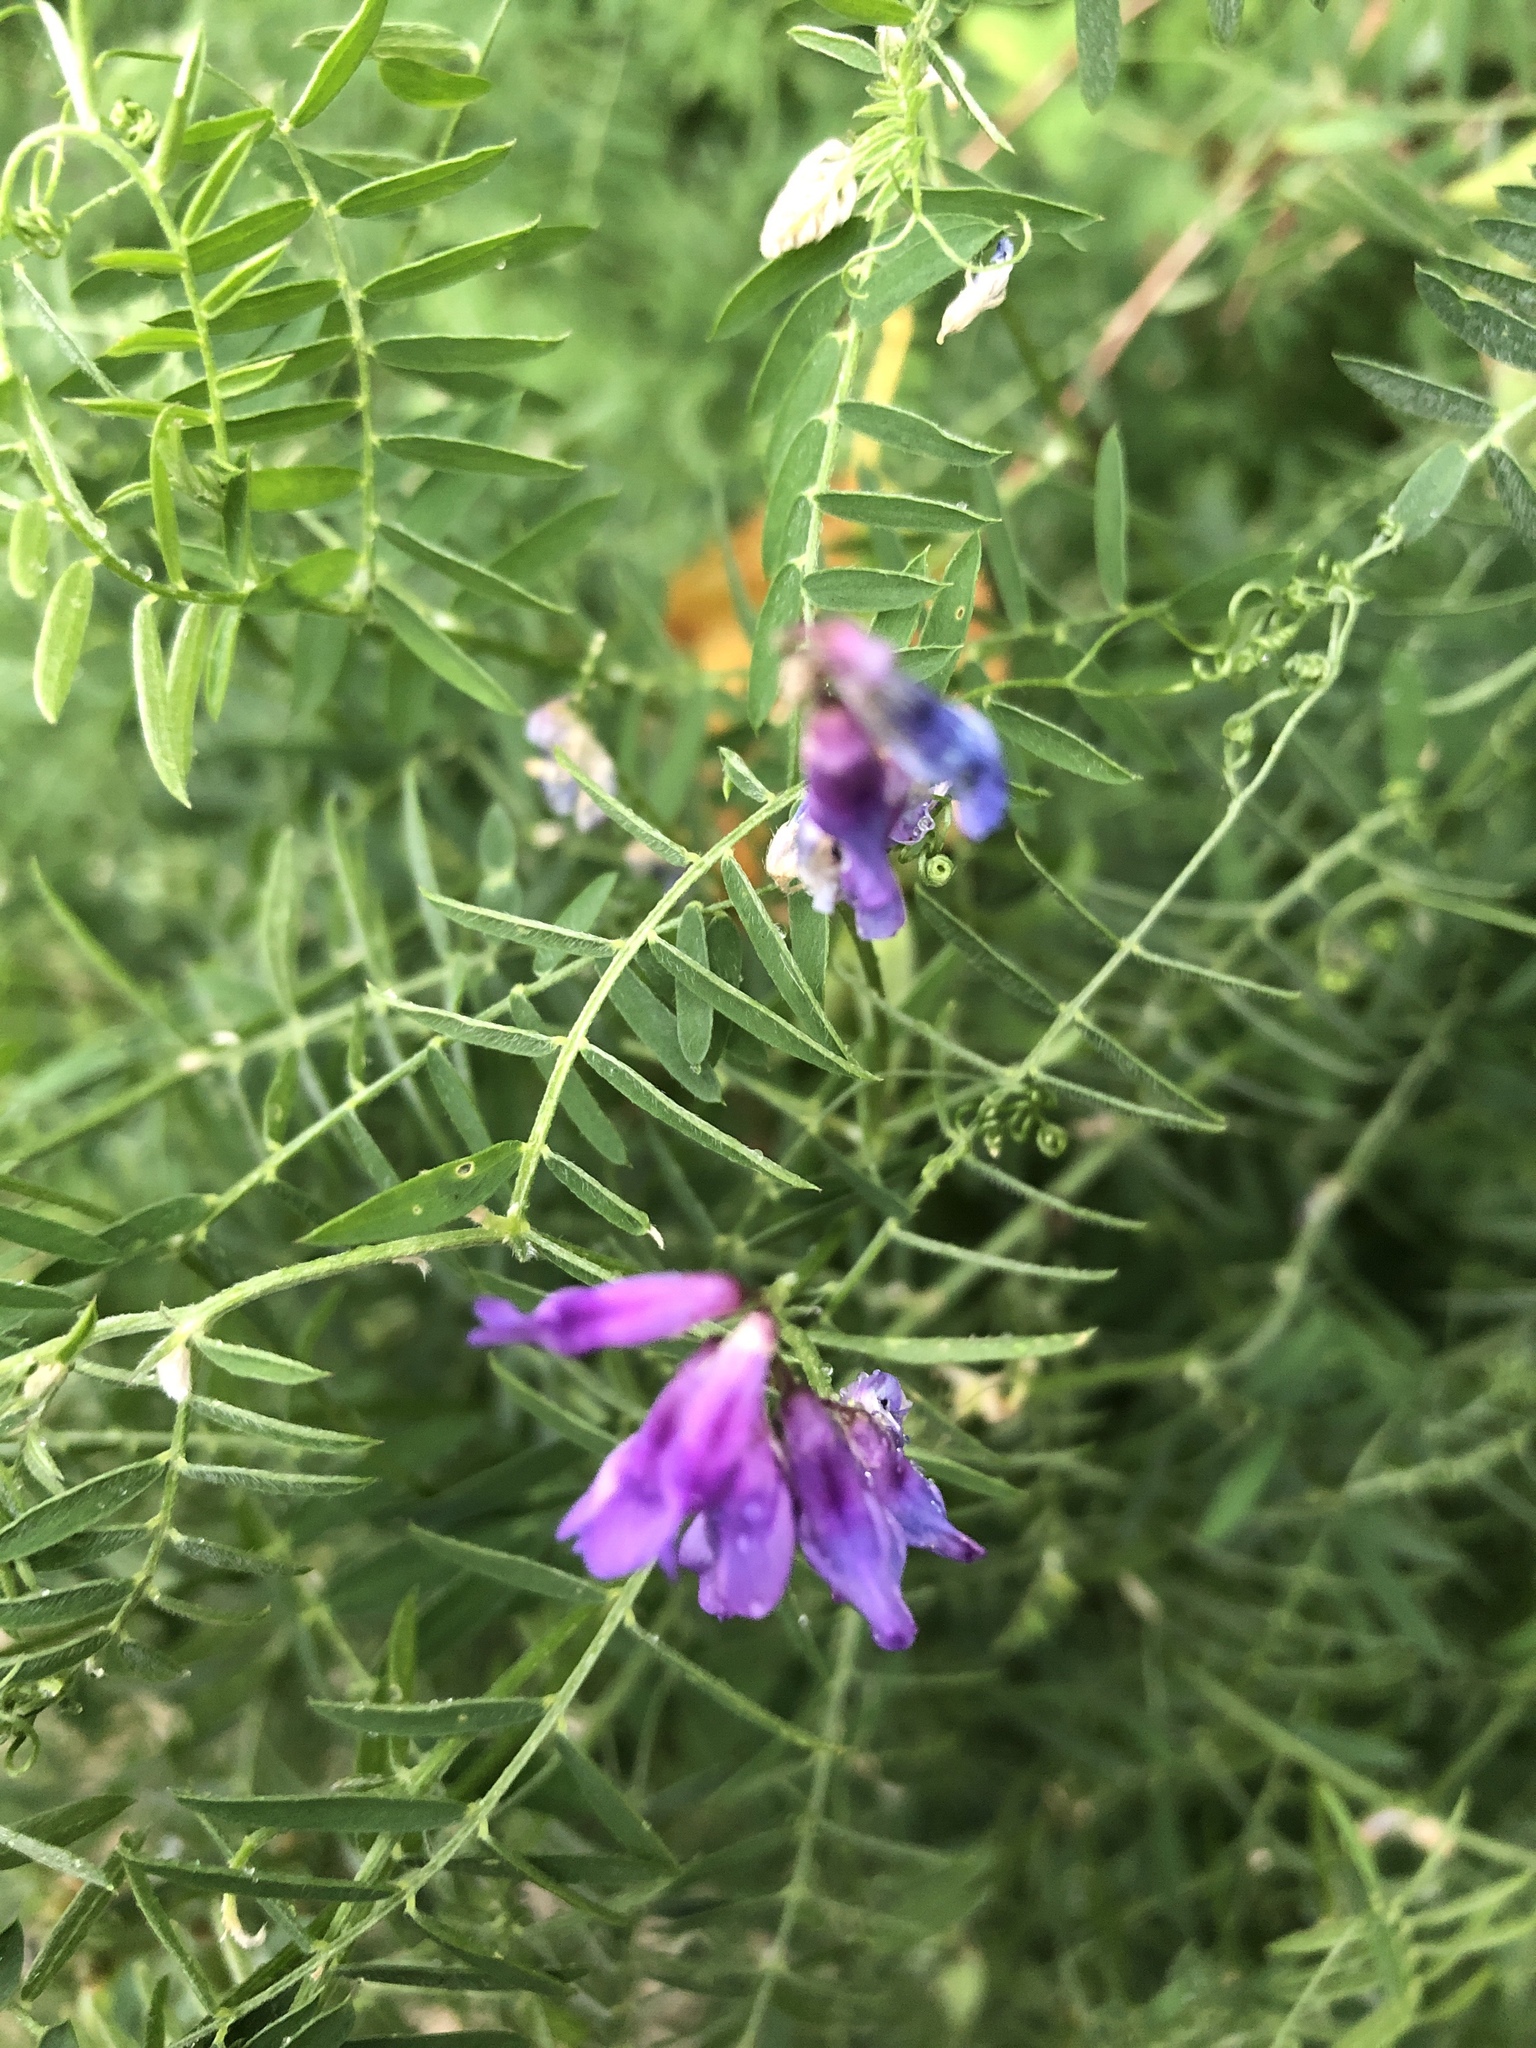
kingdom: Plantae
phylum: Tracheophyta
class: Magnoliopsida
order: Fabales
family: Fabaceae
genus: Vicia
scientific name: Vicia cracca
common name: Bird vetch
